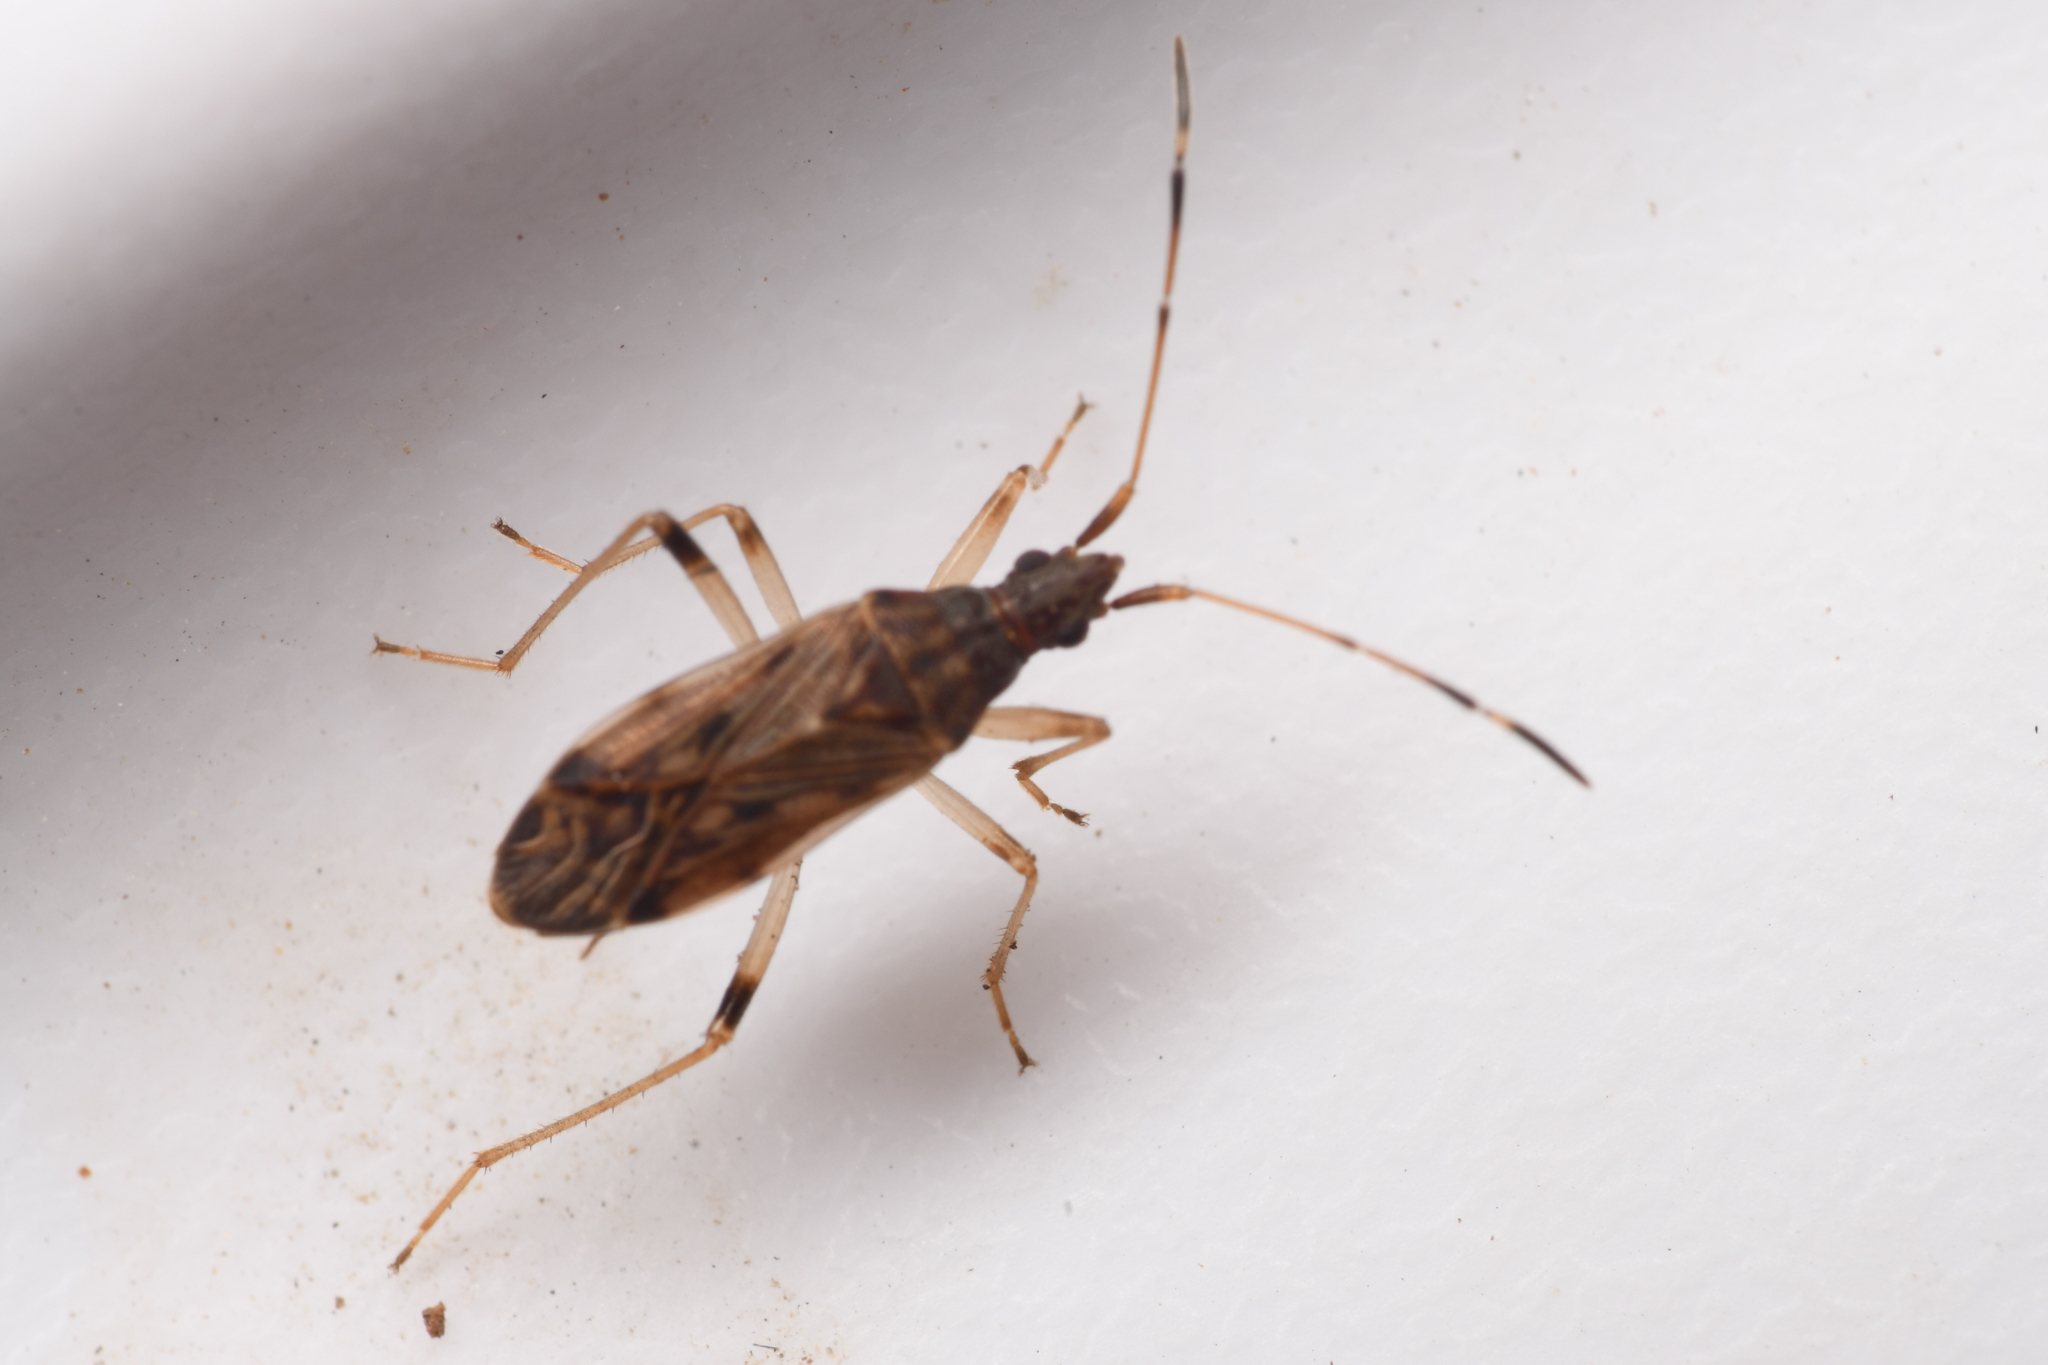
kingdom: Animalia
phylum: Arthropoda
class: Insecta
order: Hemiptera
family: Rhyparochromidae
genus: Ozophora
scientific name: Ozophora occidentalis
